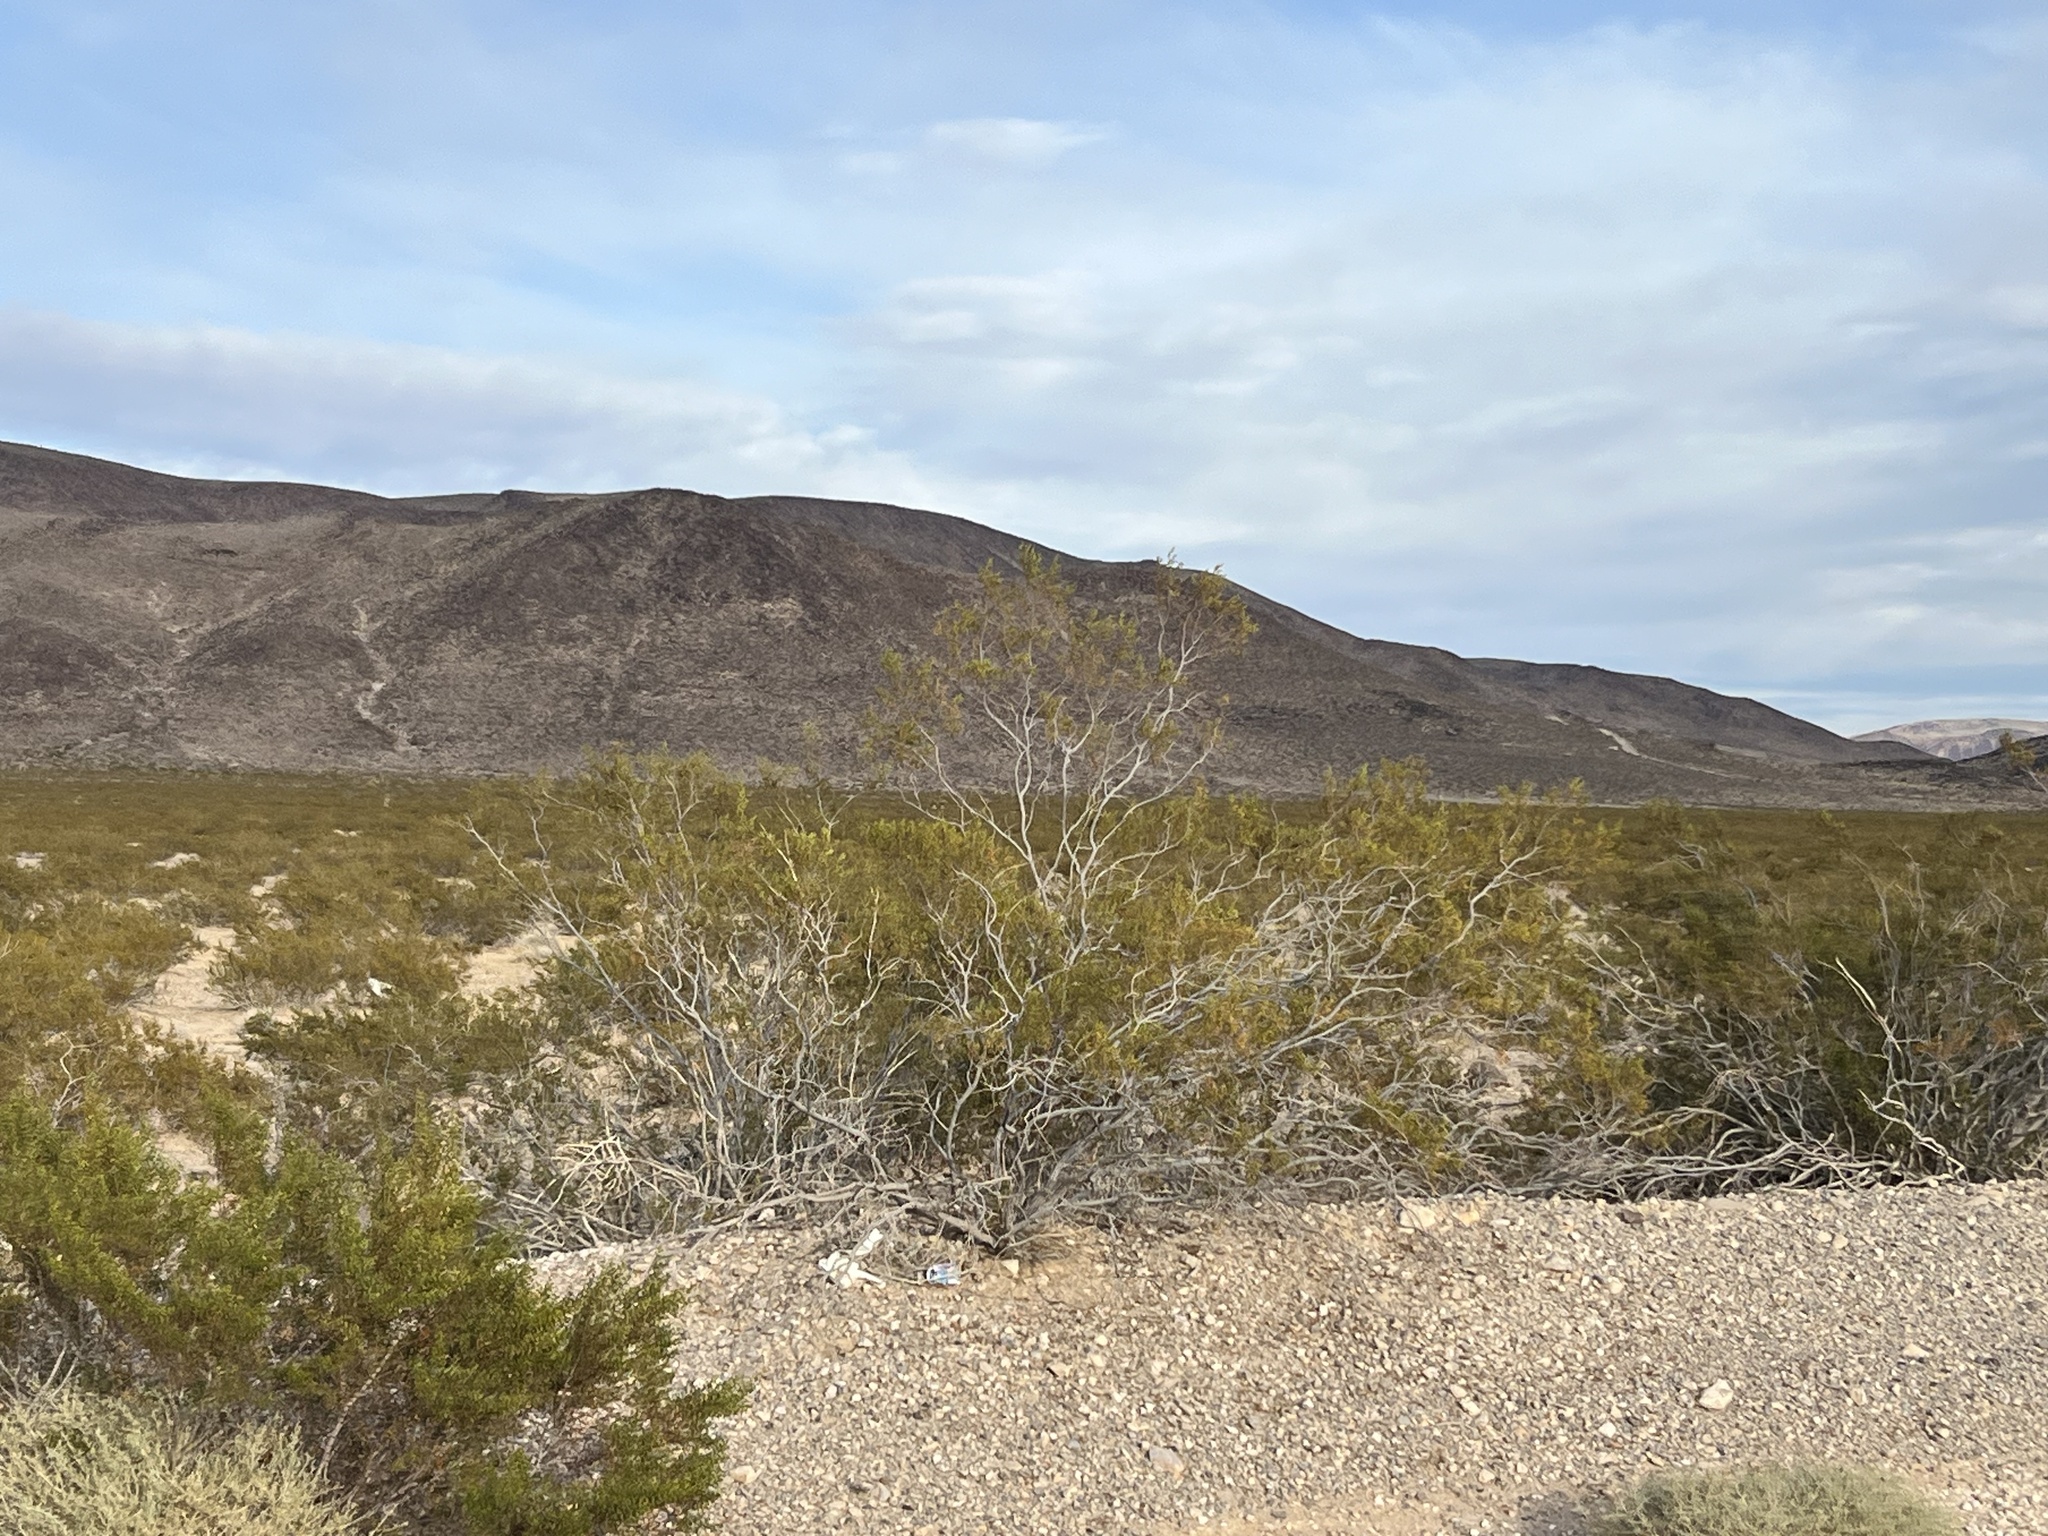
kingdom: Plantae
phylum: Tracheophyta
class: Magnoliopsida
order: Zygophyllales
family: Zygophyllaceae
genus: Larrea
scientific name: Larrea tridentata
